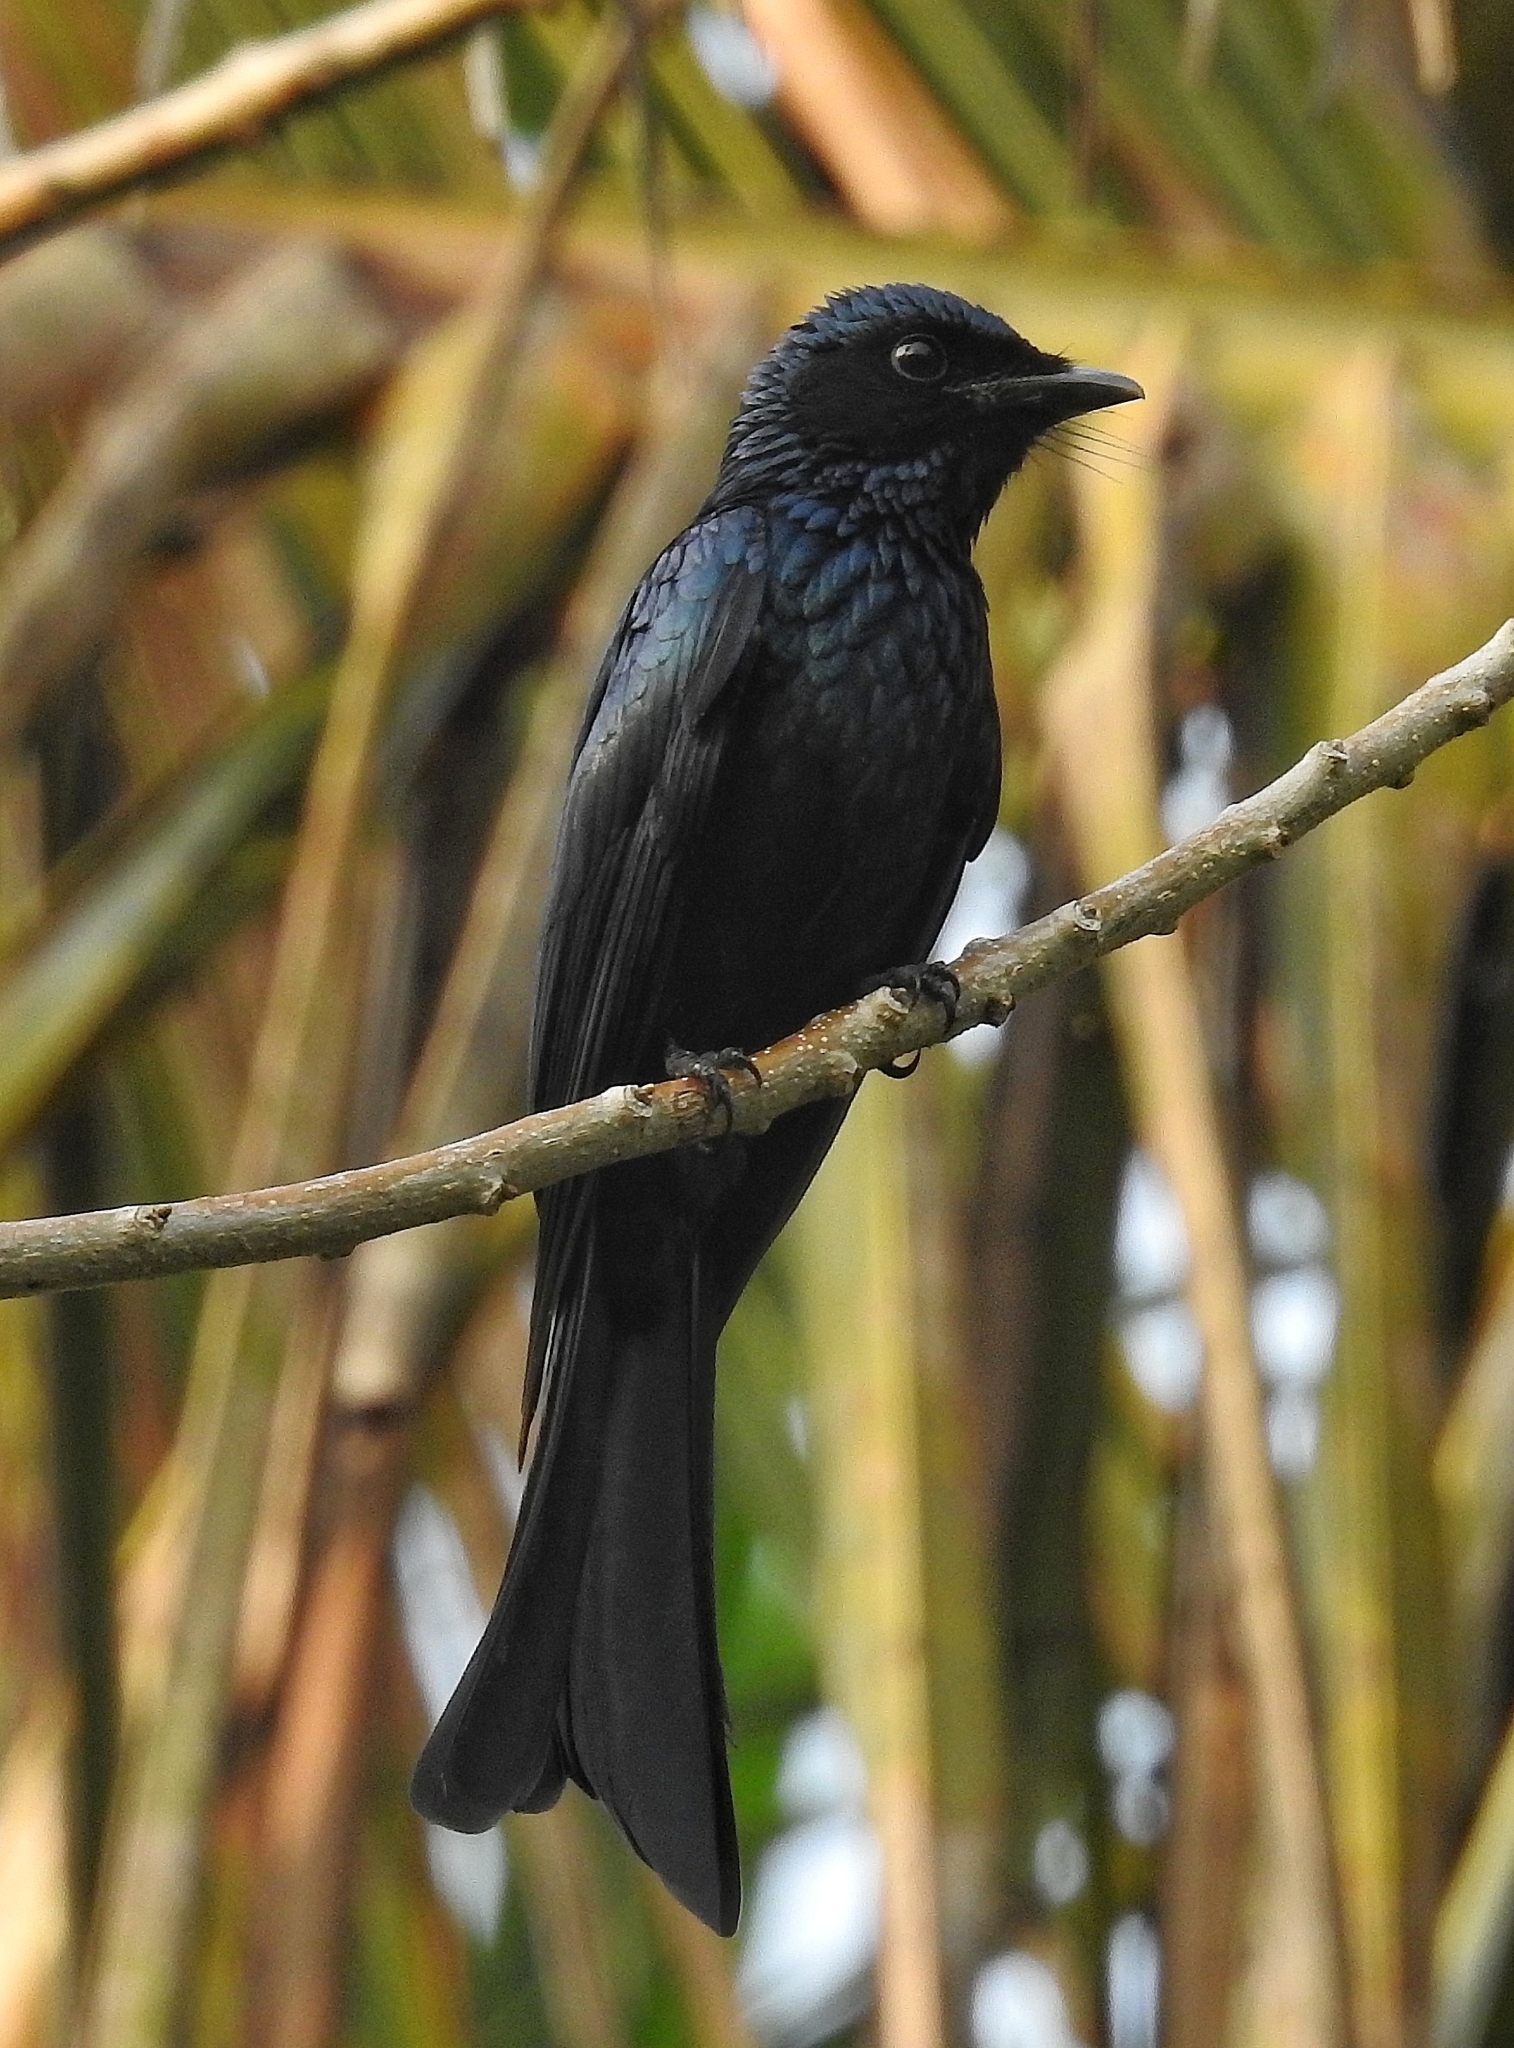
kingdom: Animalia
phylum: Chordata
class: Aves
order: Passeriformes
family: Dicruridae
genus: Dicrurus
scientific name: Dicrurus aeneus
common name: Bronzed drongo
